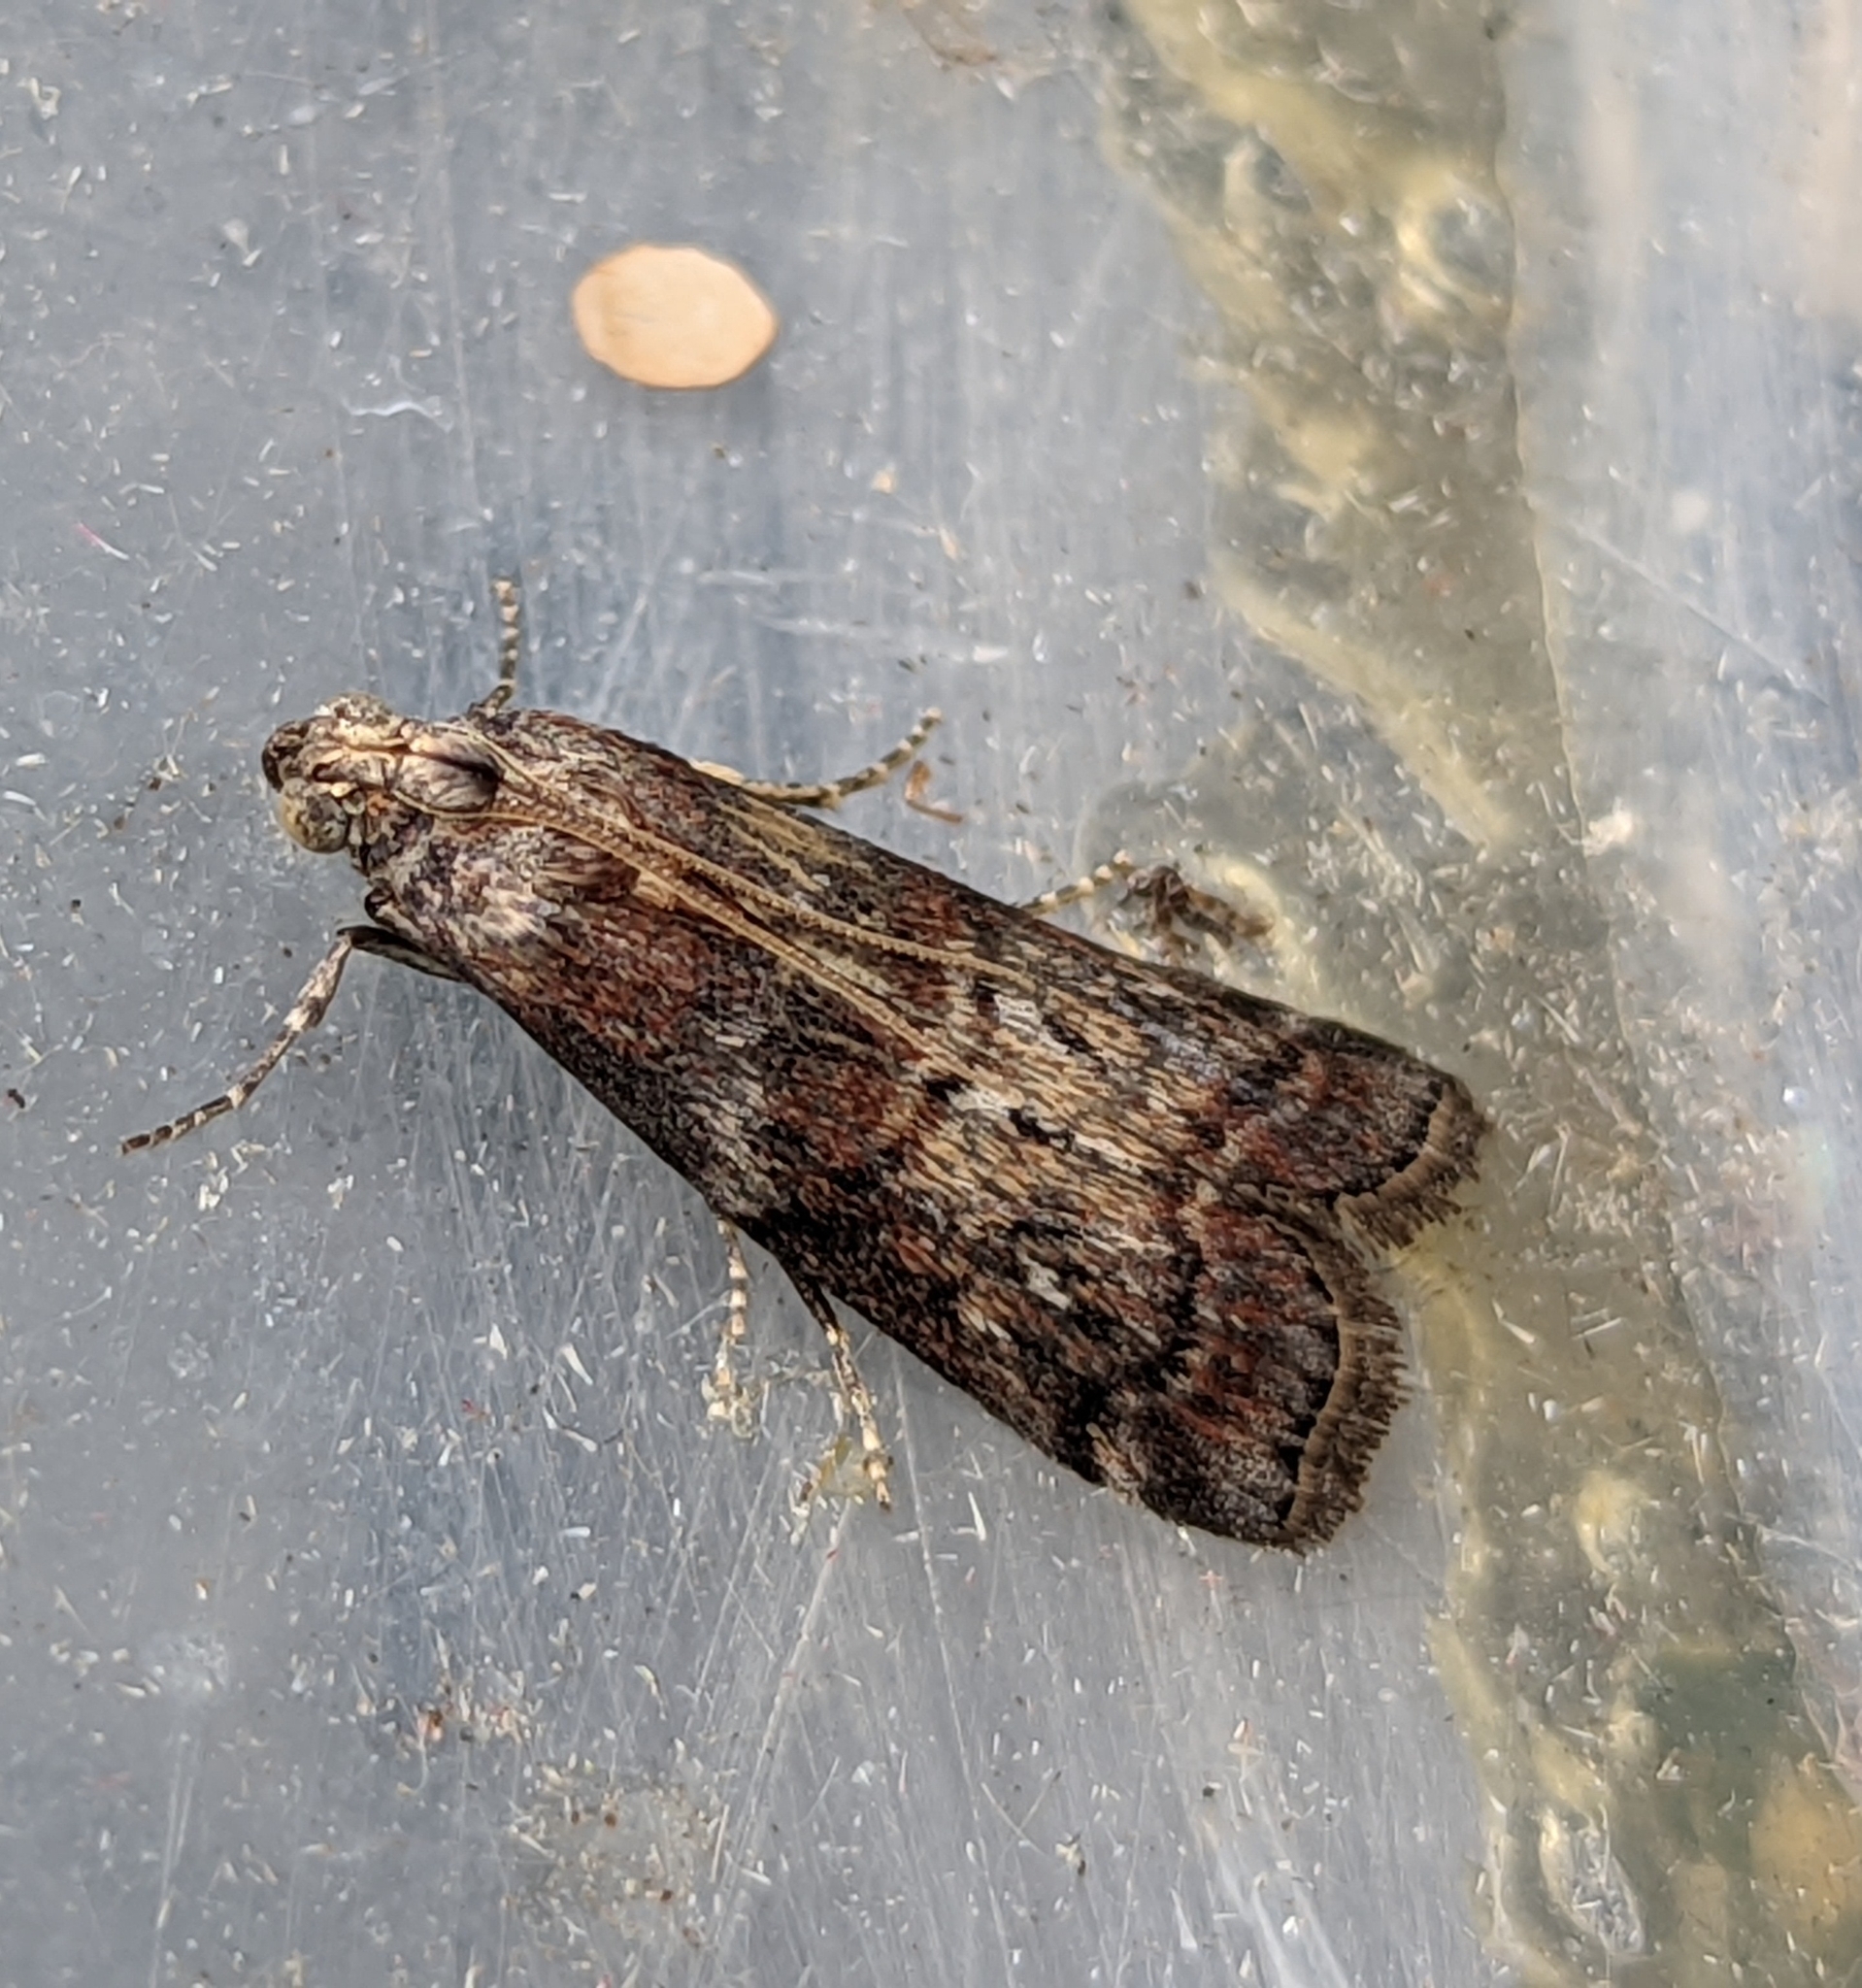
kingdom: Animalia
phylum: Arthropoda
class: Insecta
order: Lepidoptera
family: Pyralidae
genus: Phycita
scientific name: Phycita roborella
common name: Dotted oak knot-horn
